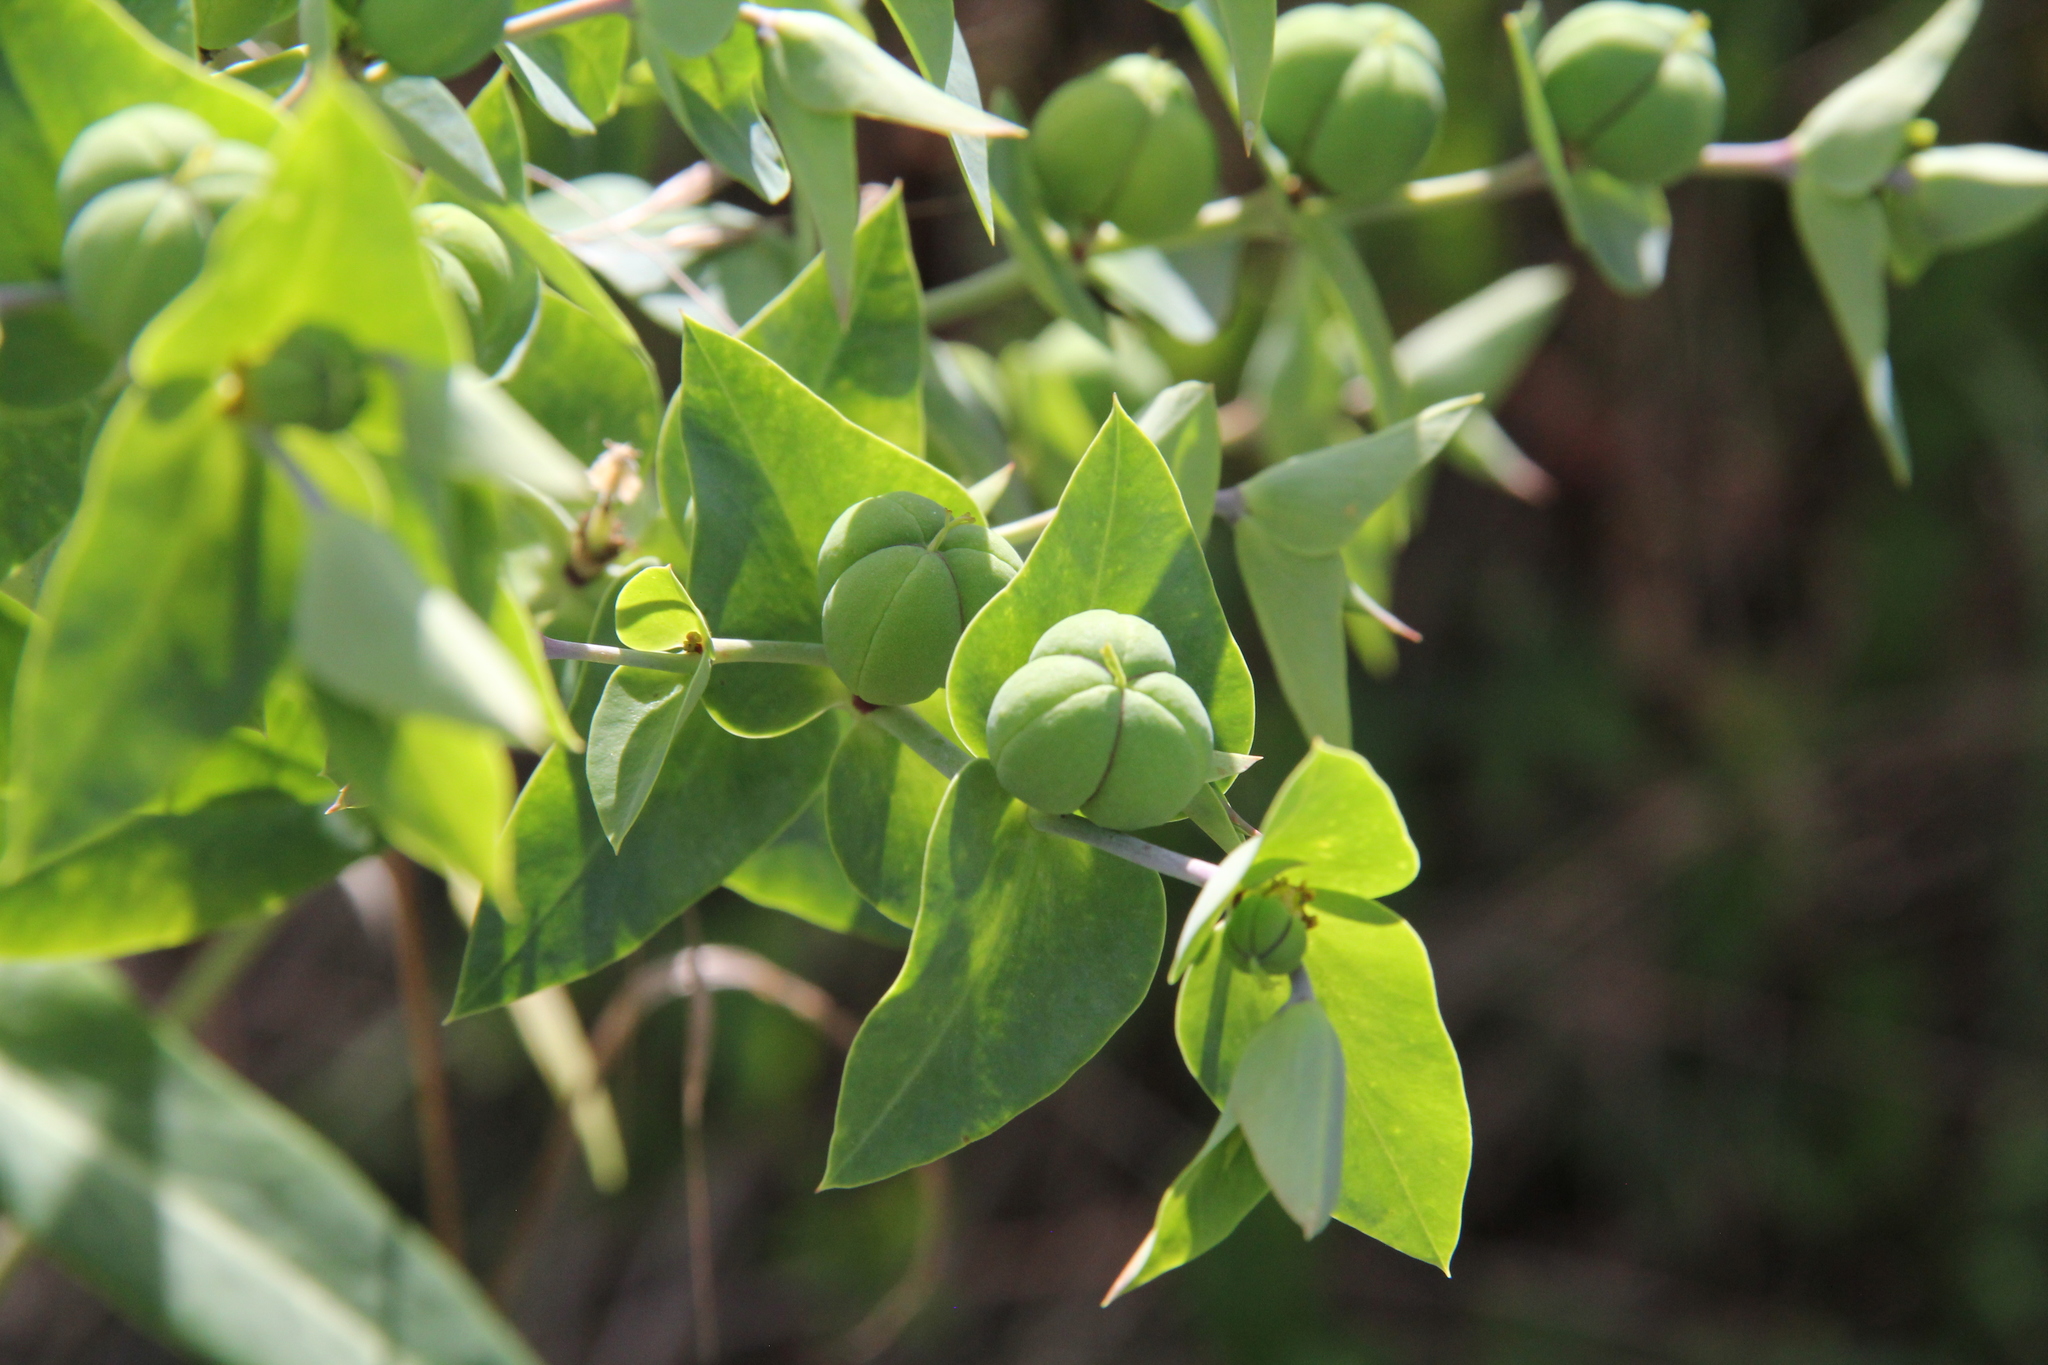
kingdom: Plantae
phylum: Tracheophyta
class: Magnoliopsida
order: Malpighiales
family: Euphorbiaceae
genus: Euphorbia
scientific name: Euphorbia lathyris
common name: Caper spurge
